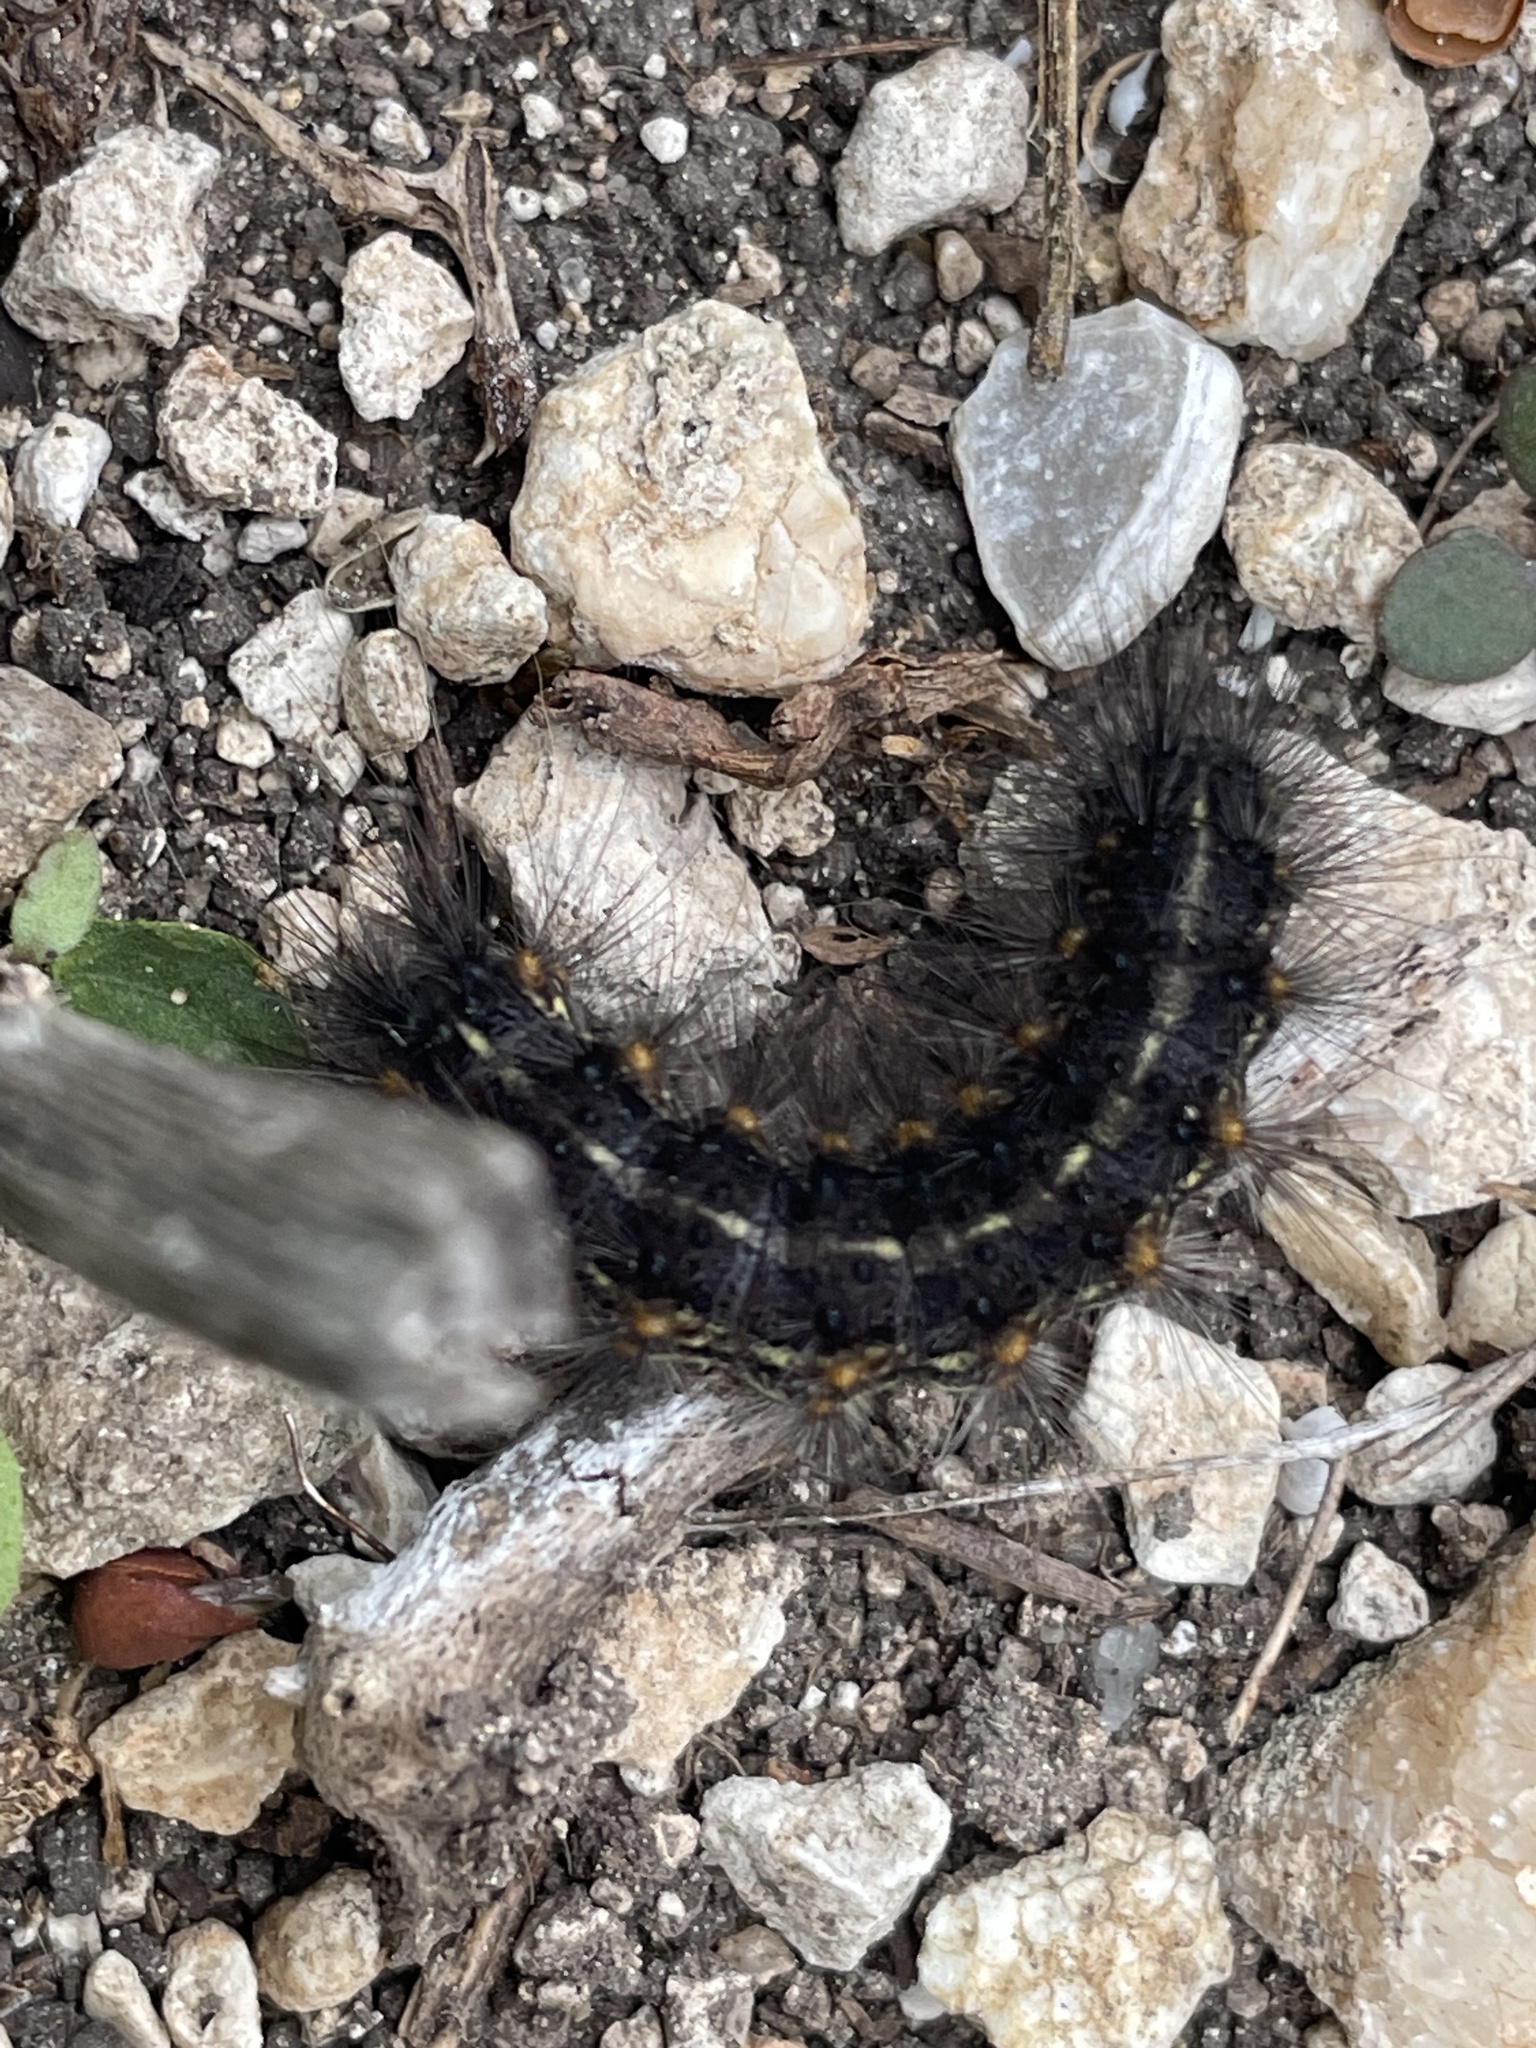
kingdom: Animalia
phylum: Arthropoda
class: Insecta
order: Lepidoptera
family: Erebidae
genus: Estigmene
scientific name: Estigmene acrea
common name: Salt marsh moth
